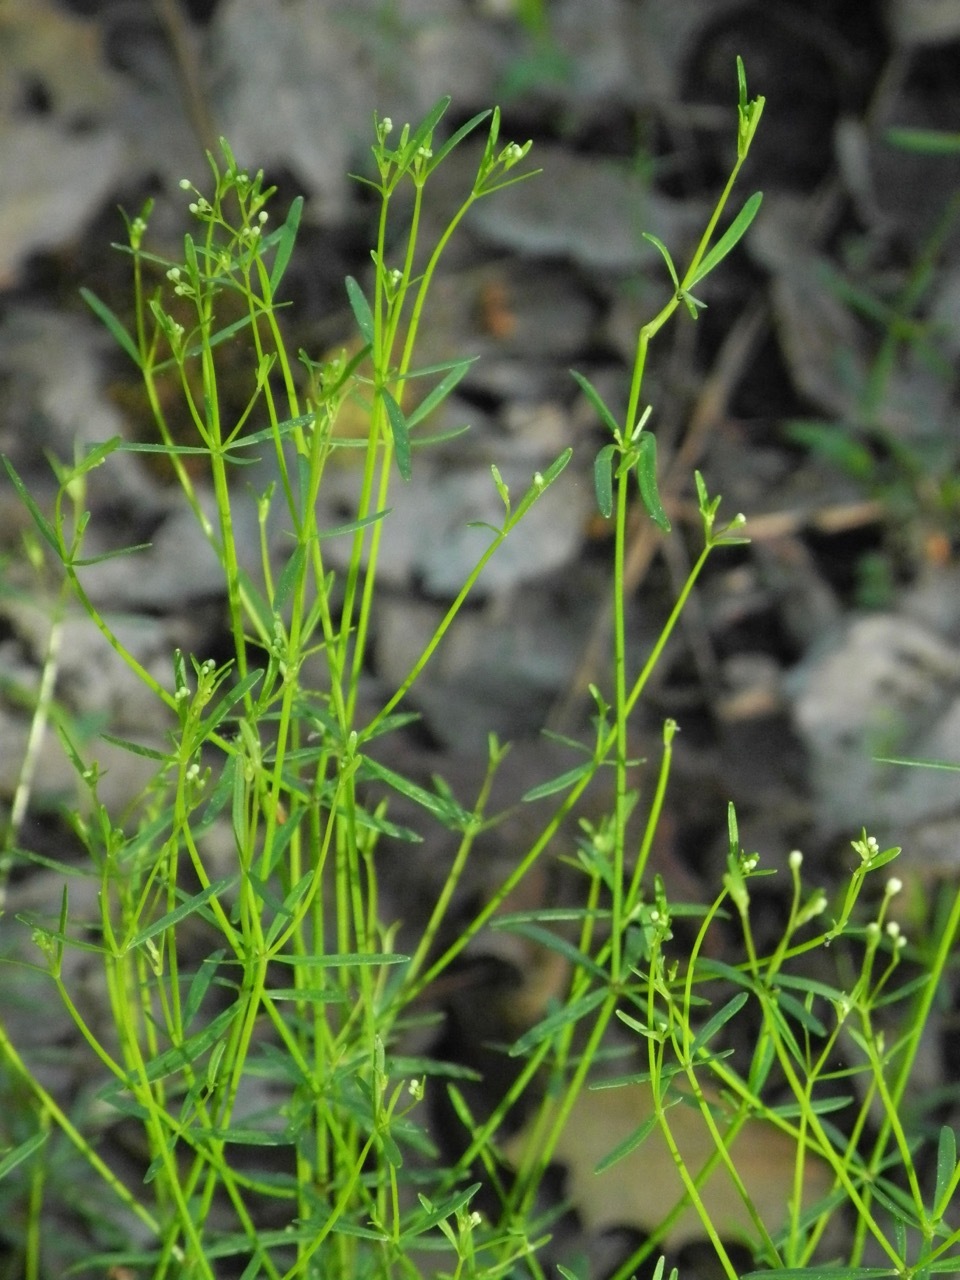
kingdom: Plantae
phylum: Tracheophyta
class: Magnoliopsida
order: Gentianales
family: Rubiaceae
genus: Galium
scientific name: Galium tinctorium
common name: Bedstraw
